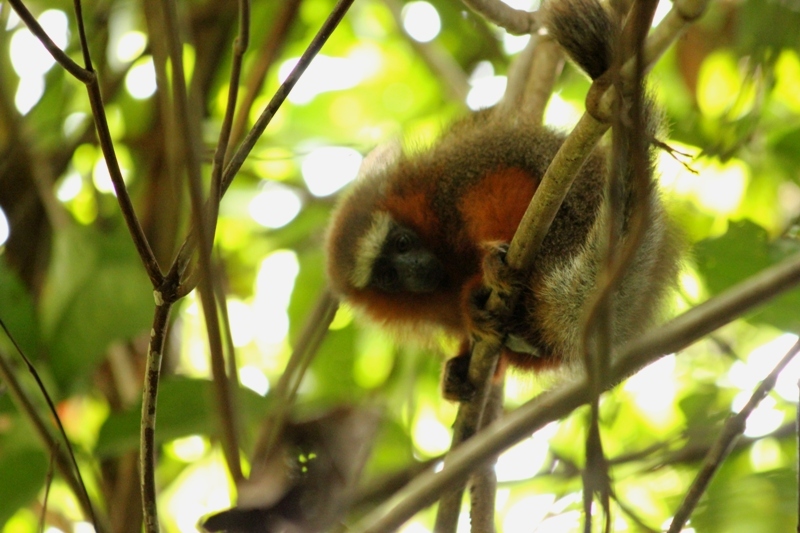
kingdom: Animalia
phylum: Chordata
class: Mammalia
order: Primates
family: Pitheciidae
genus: Plecturocebus
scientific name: Plecturocebus discolor
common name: Red-crowned titi
